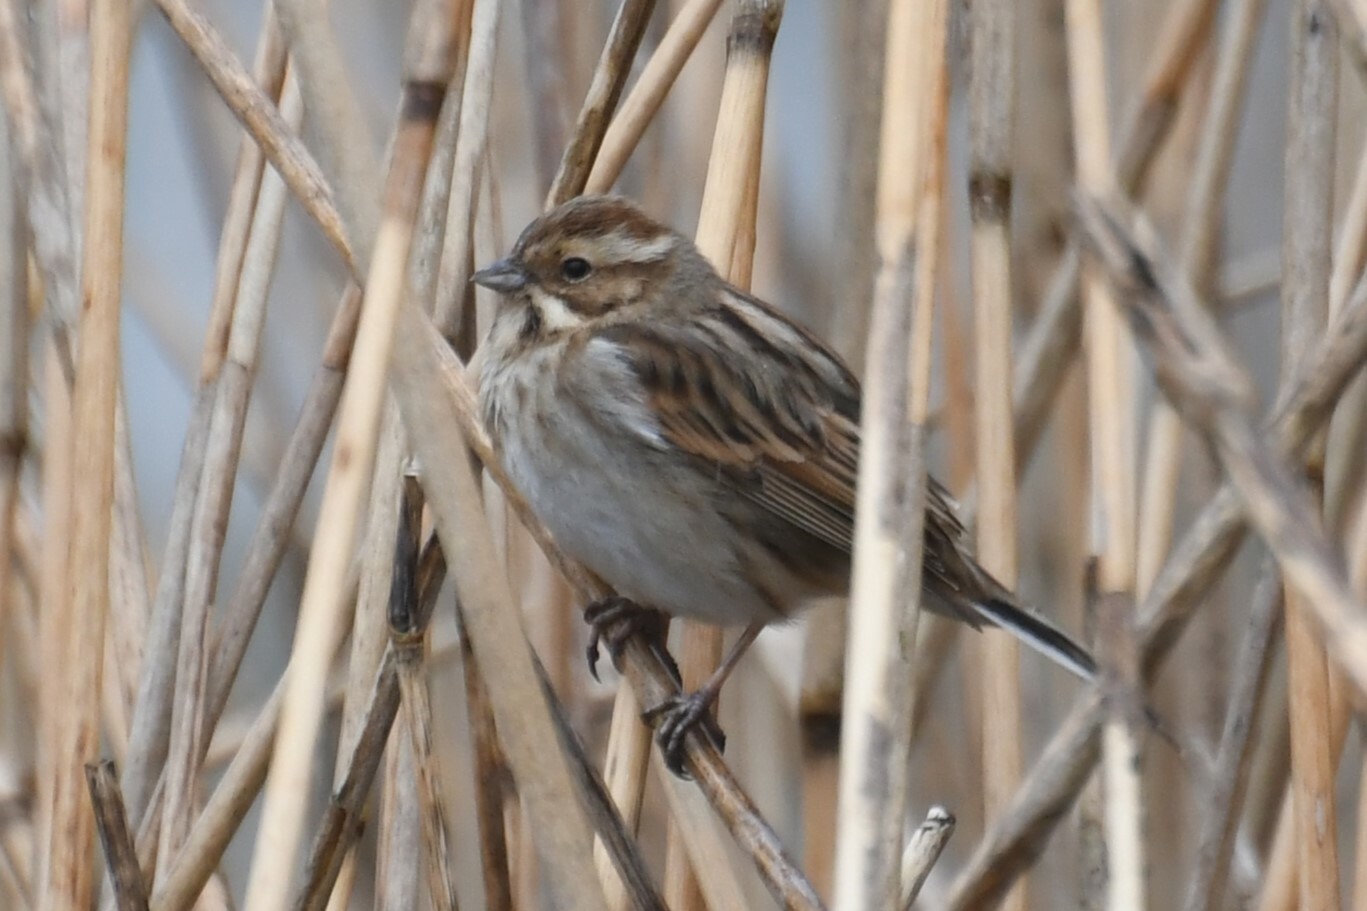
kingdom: Animalia
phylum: Chordata
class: Aves
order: Passeriformes
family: Emberizidae
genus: Emberiza
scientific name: Emberiza schoeniclus
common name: Reed bunting
